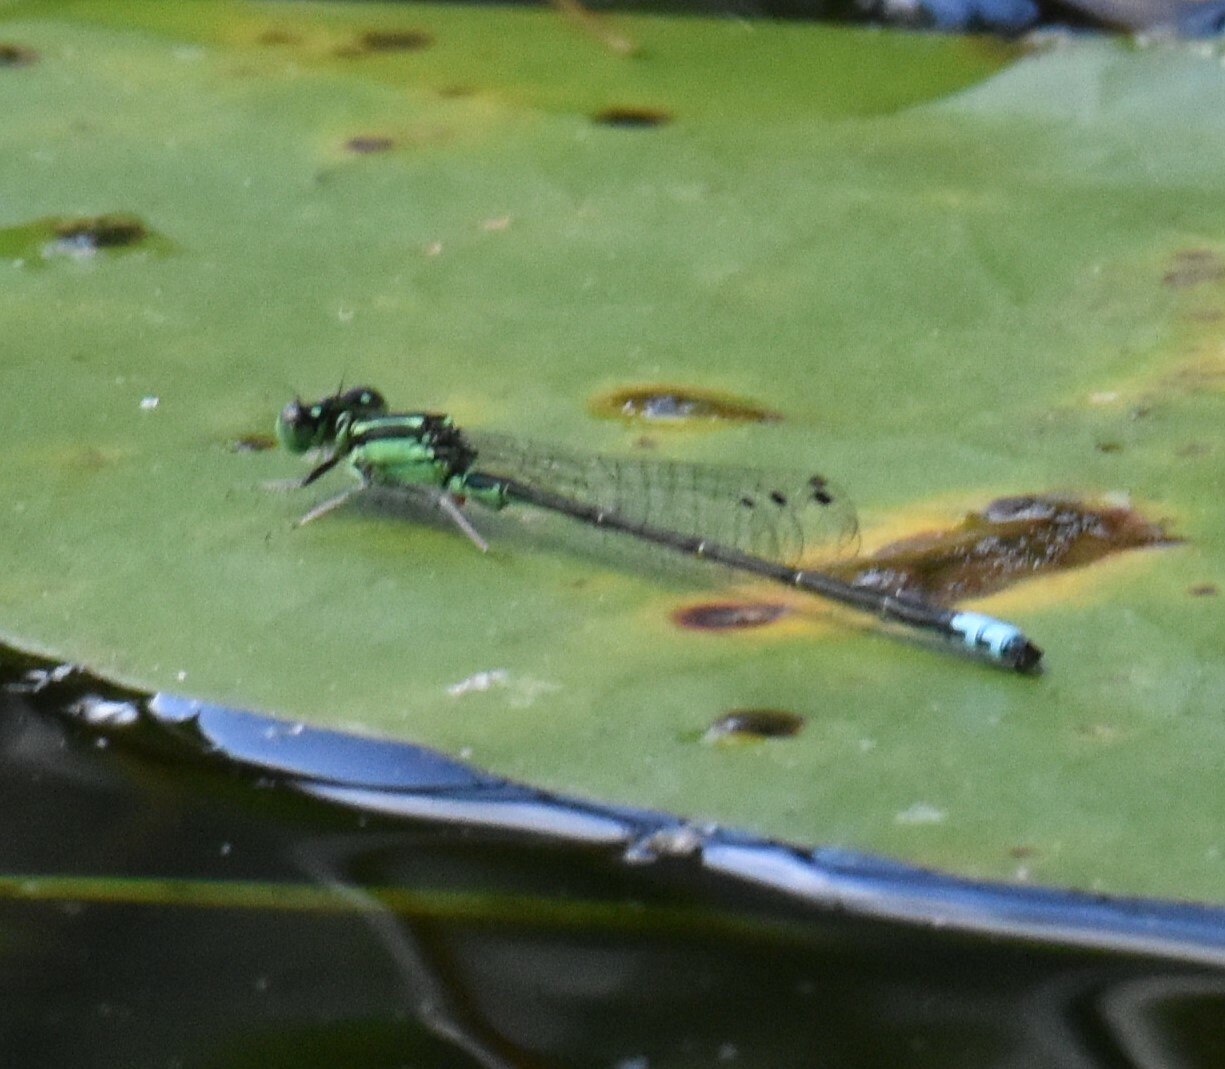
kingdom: Animalia
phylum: Arthropoda
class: Insecta
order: Odonata
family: Coenagrionidae
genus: Ischnura
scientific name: Ischnura verticalis
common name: Eastern forktail
